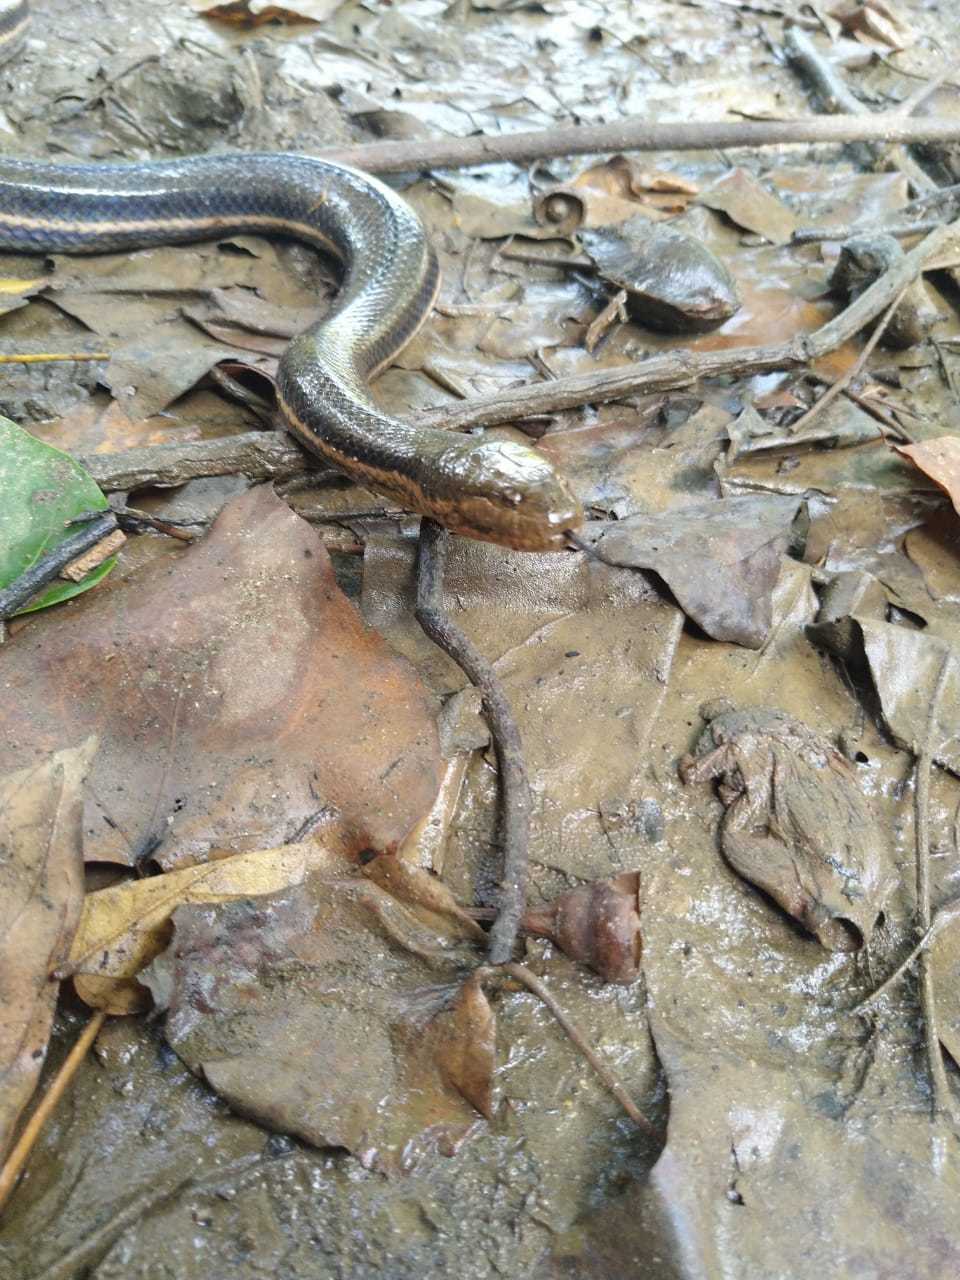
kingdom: Animalia
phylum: Chordata
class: Squamata
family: Homalopsidae
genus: Dieurostus
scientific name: Dieurostus dussumieri
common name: Dussumier's water snake
